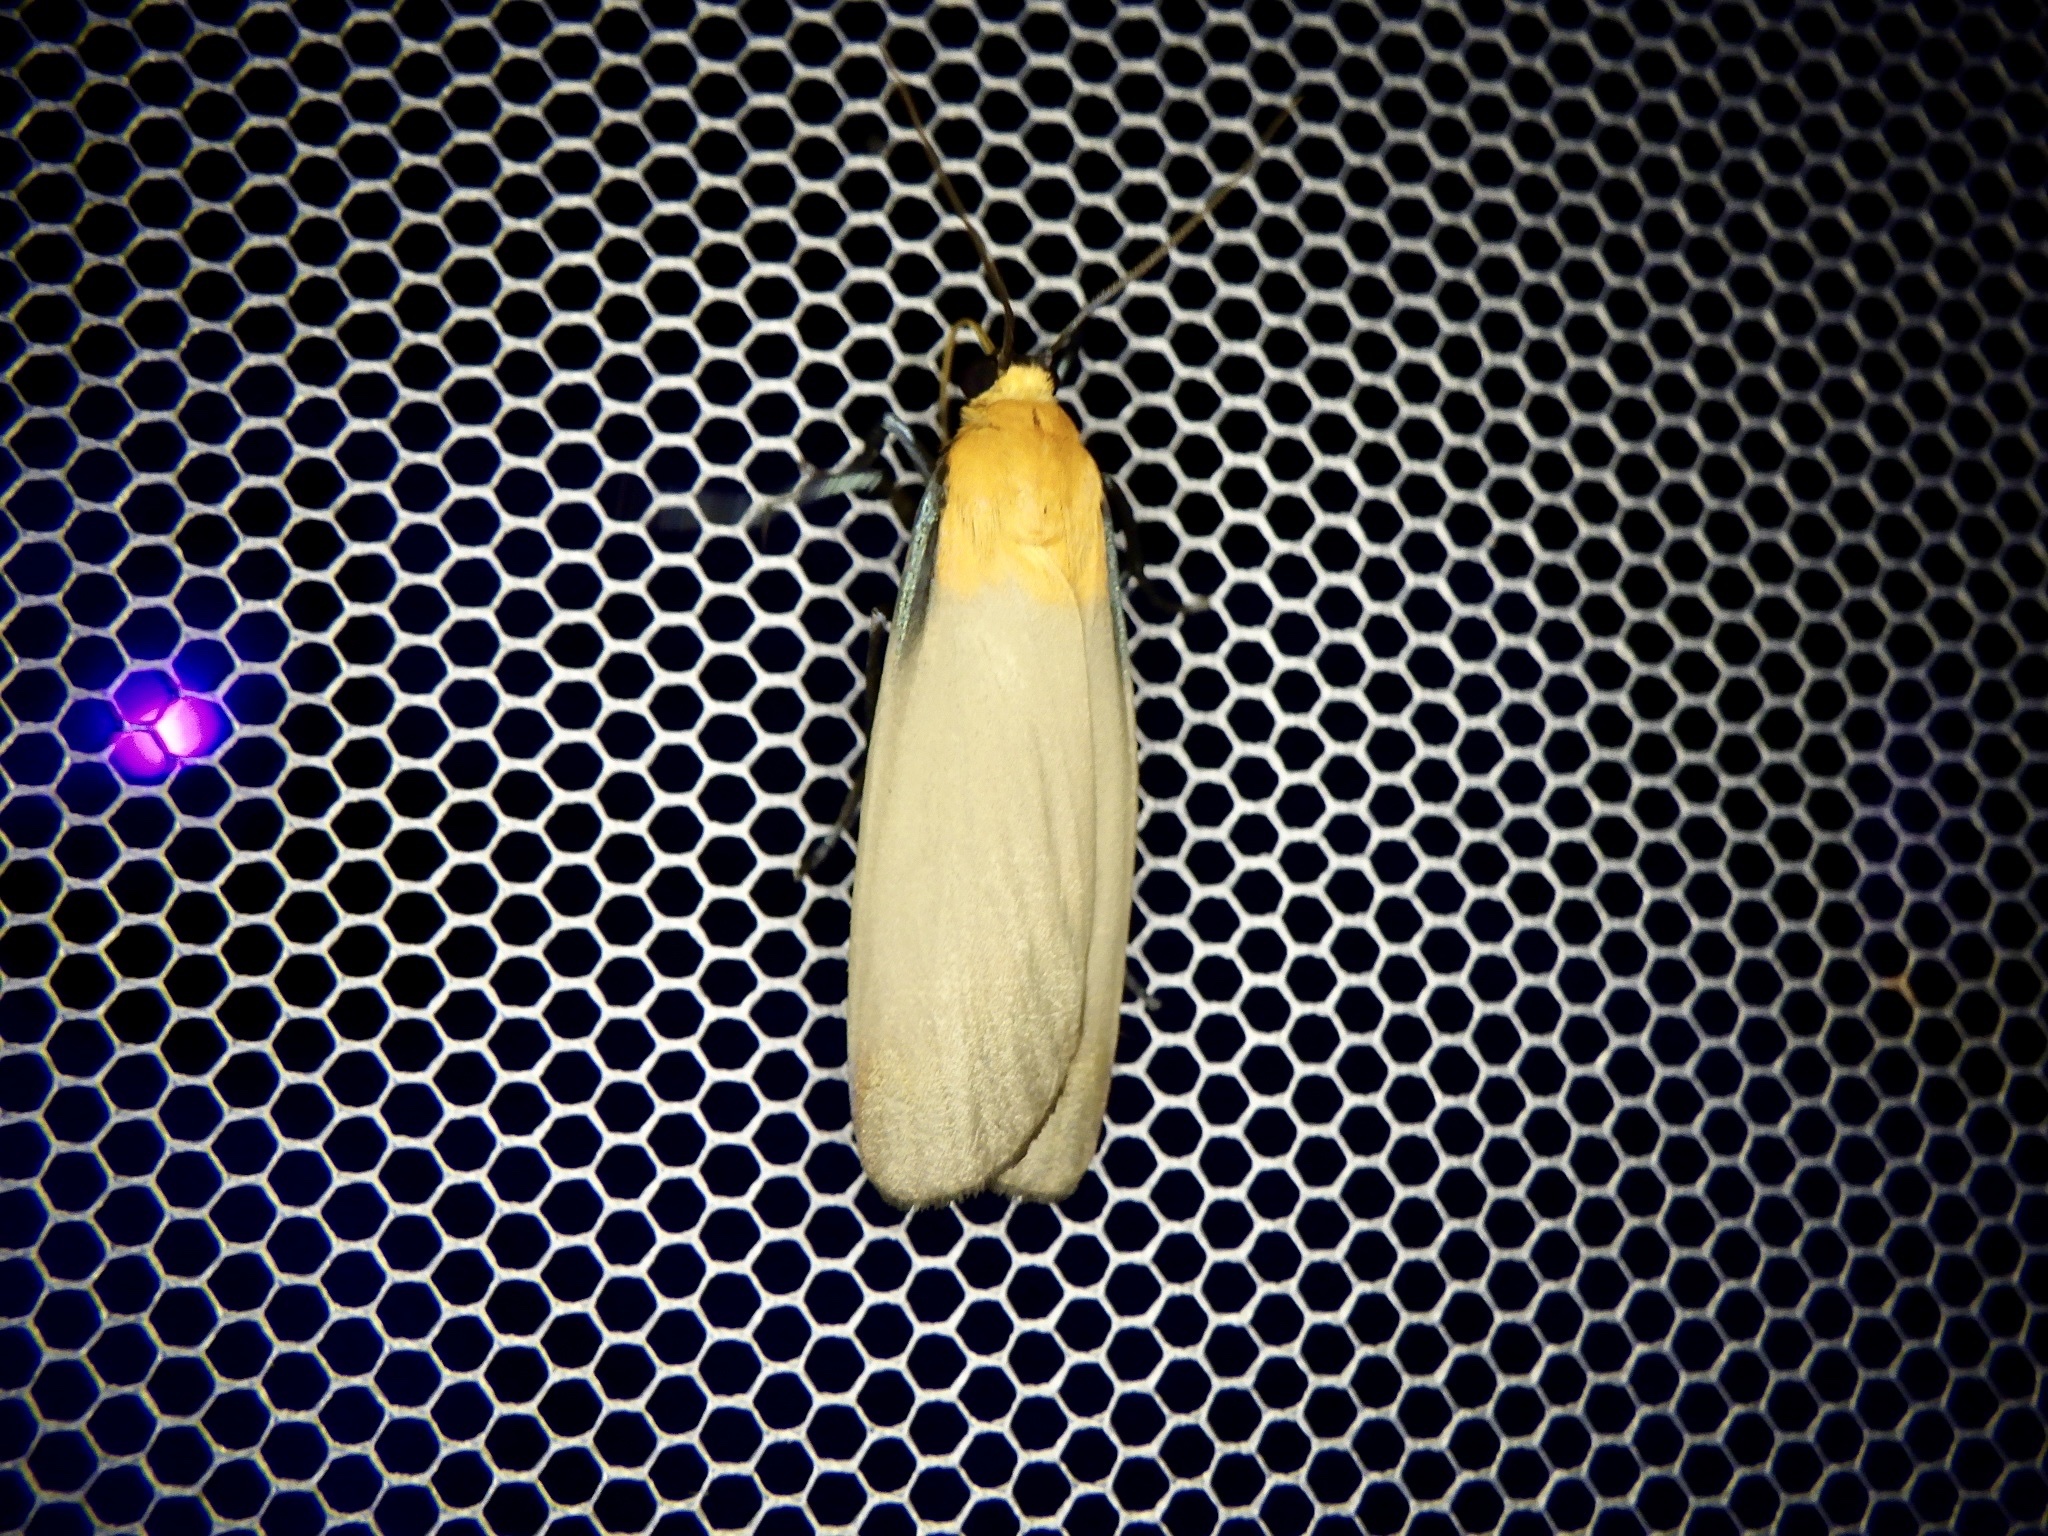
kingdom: Animalia
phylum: Arthropoda
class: Insecta
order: Lepidoptera
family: Erebidae
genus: Lithosia
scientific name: Lithosia quadra
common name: Four-spotted footman
